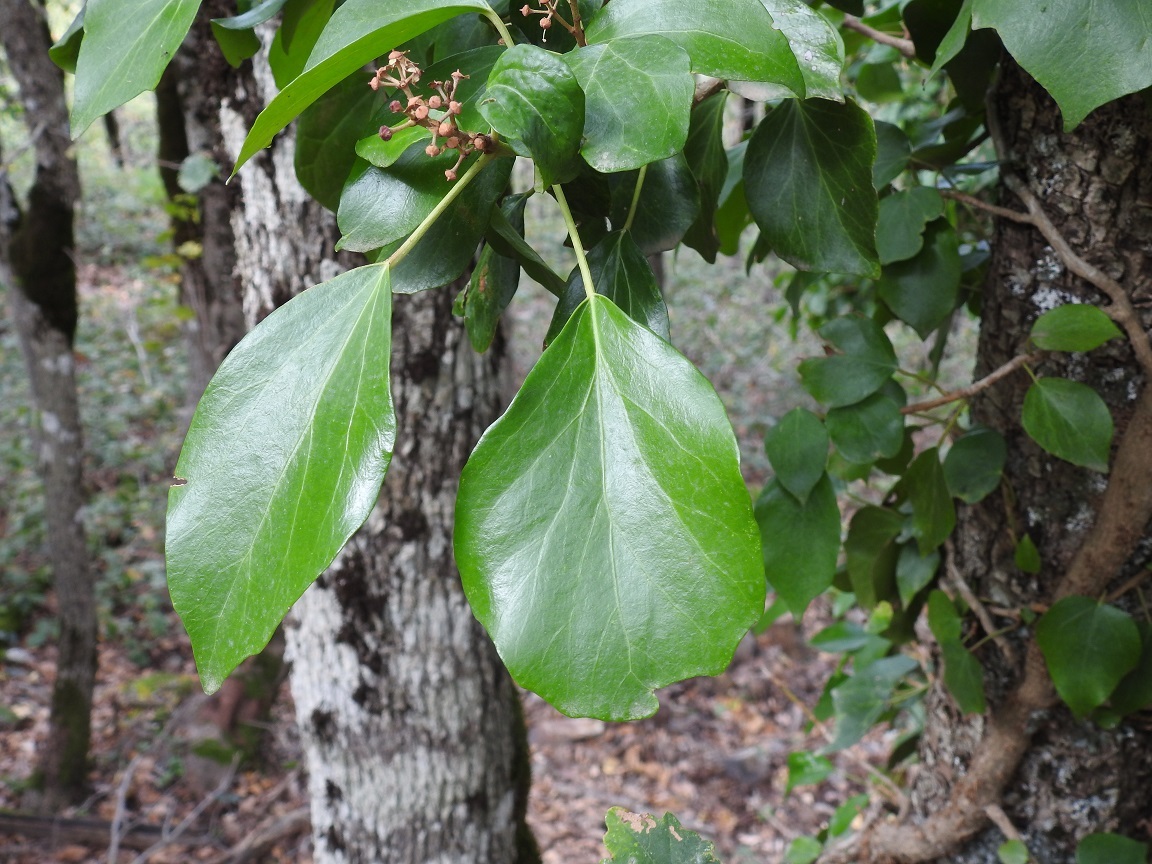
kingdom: Plantae
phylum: Tracheophyta
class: Magnoliopsida
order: Apiales
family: Araliaceae
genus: Hedera
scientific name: Hedera algeriensis
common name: Algerian ivy
